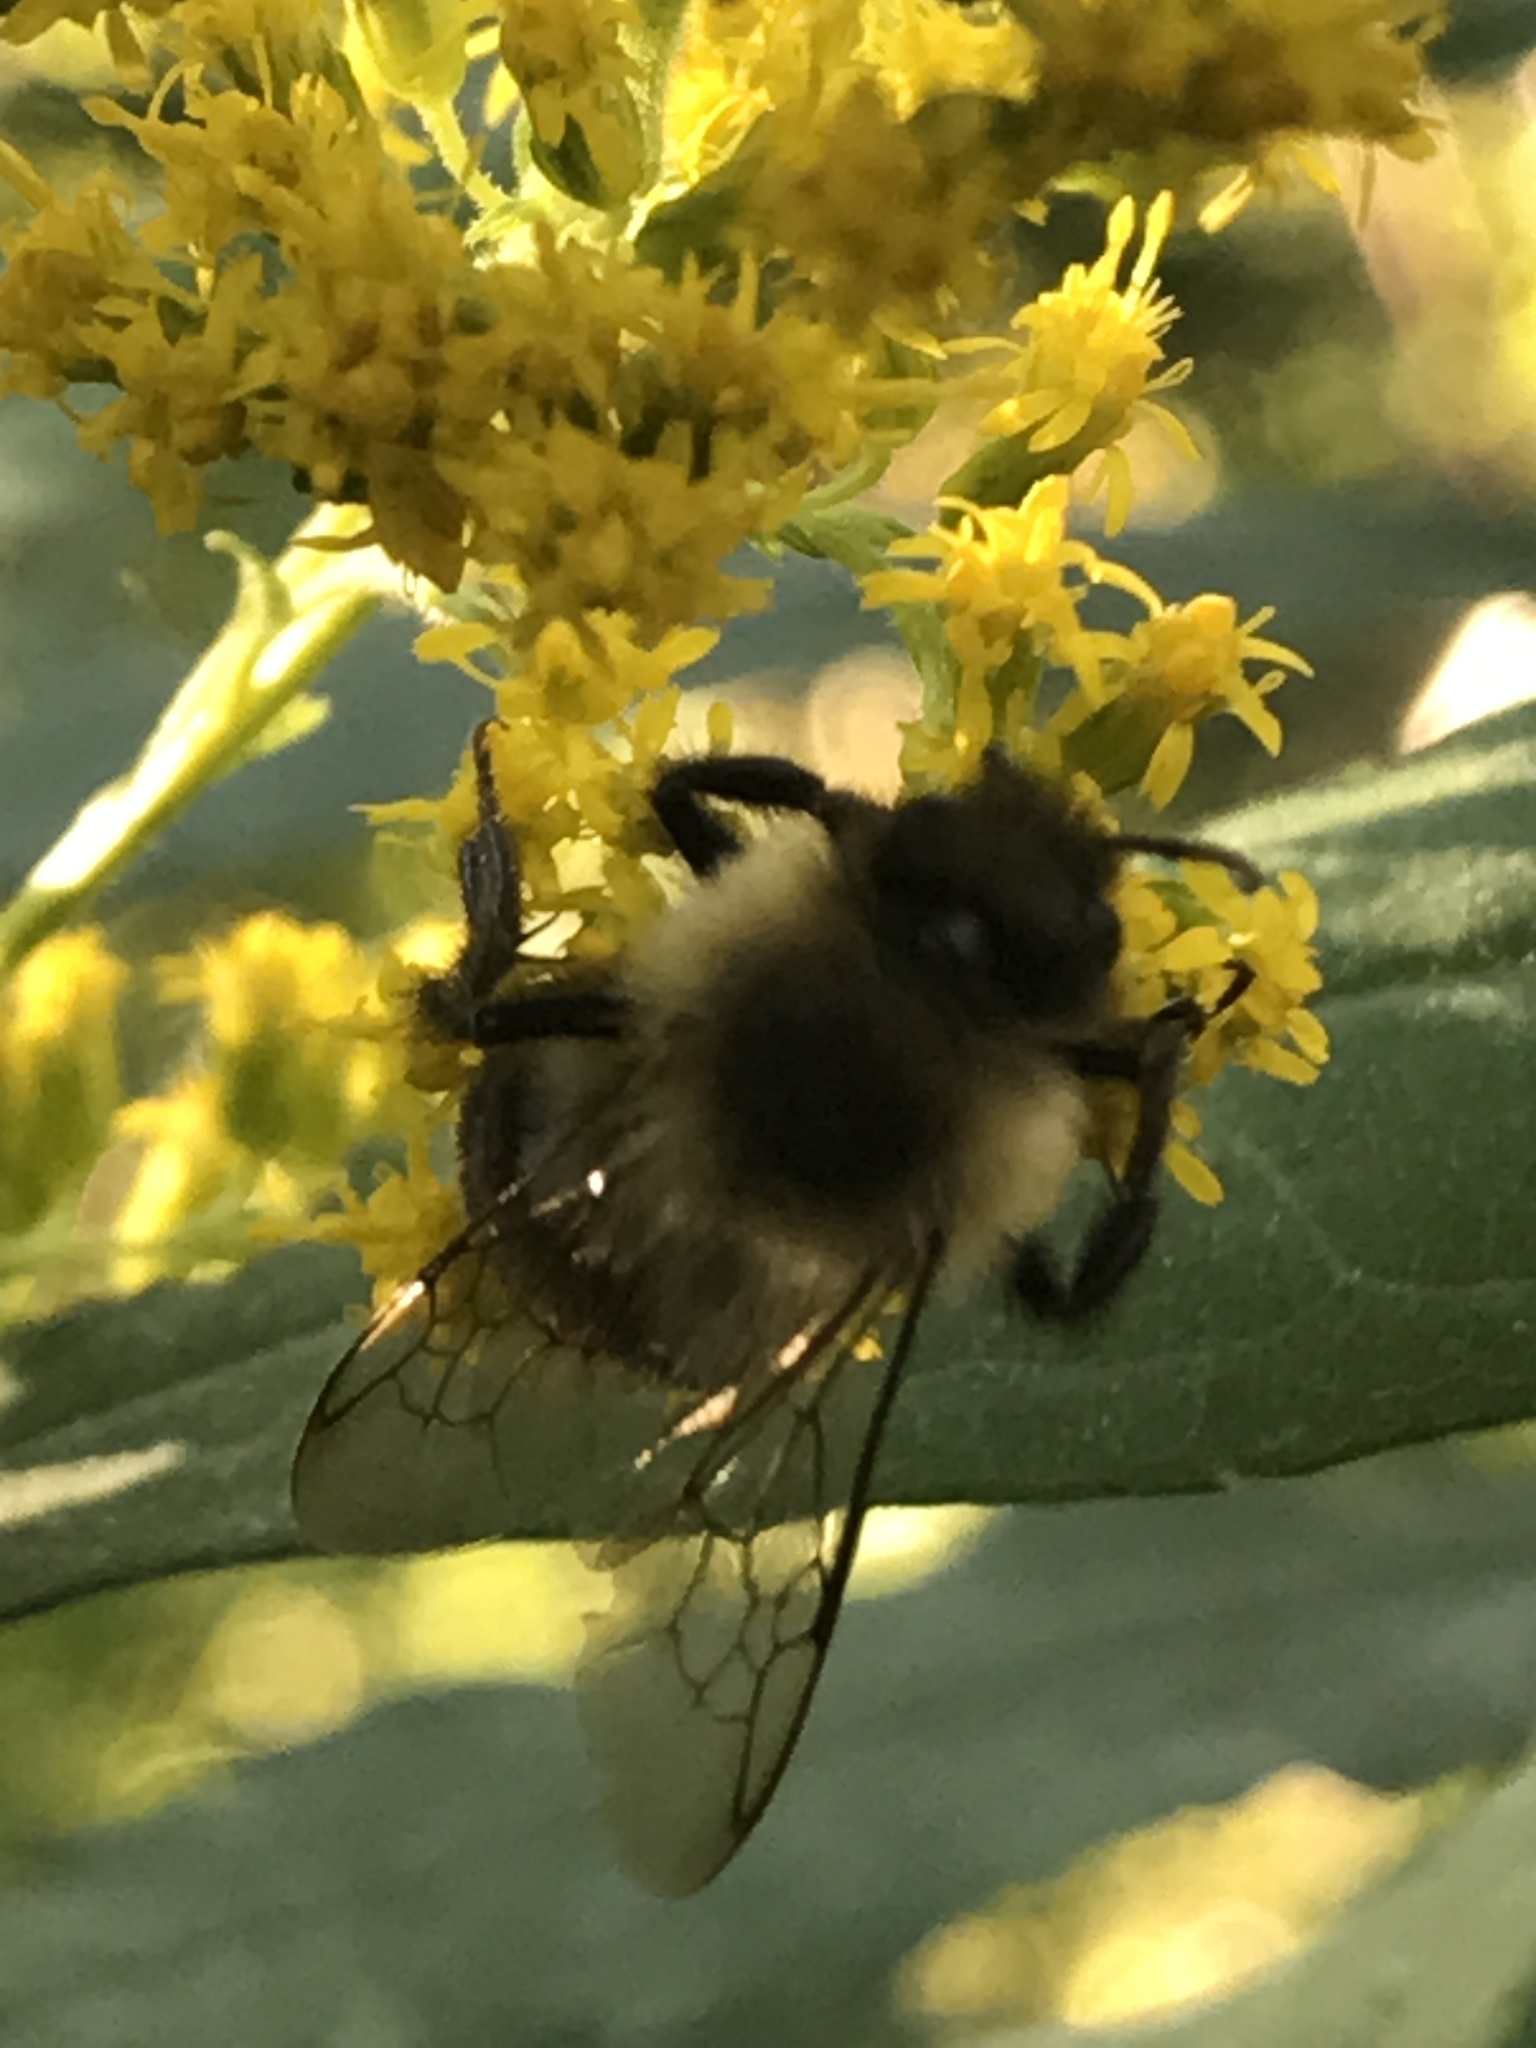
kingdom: Animalia
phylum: Arthropoda
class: Insecta
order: Hymenoptera
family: Apidae
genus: Bombus
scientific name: Bombus impatiens
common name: Common eastern bumble bee
